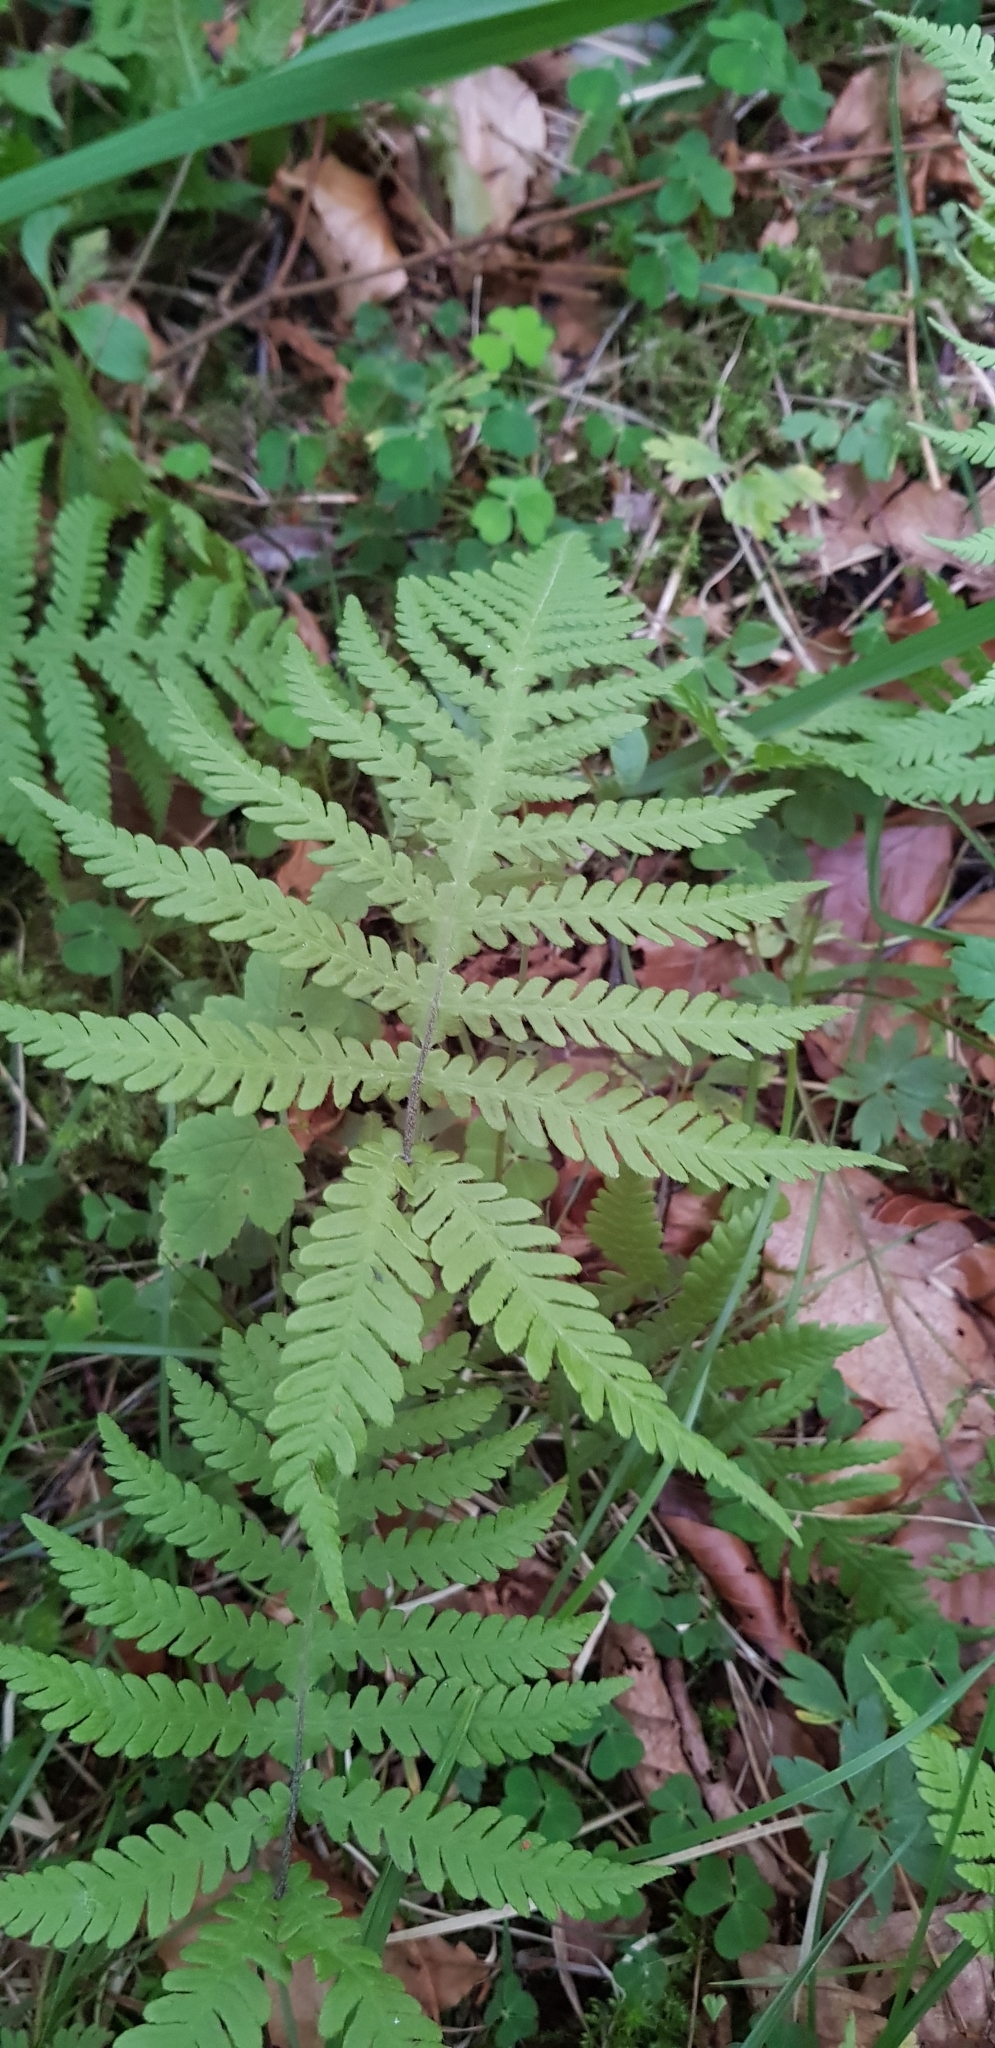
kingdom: Plantae
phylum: Tracheophyta
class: Polypodiopsida
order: Polypodiales
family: Thelypteridaceae
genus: Phegopteris
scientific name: Phegopteris connectilis
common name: Beech fern
